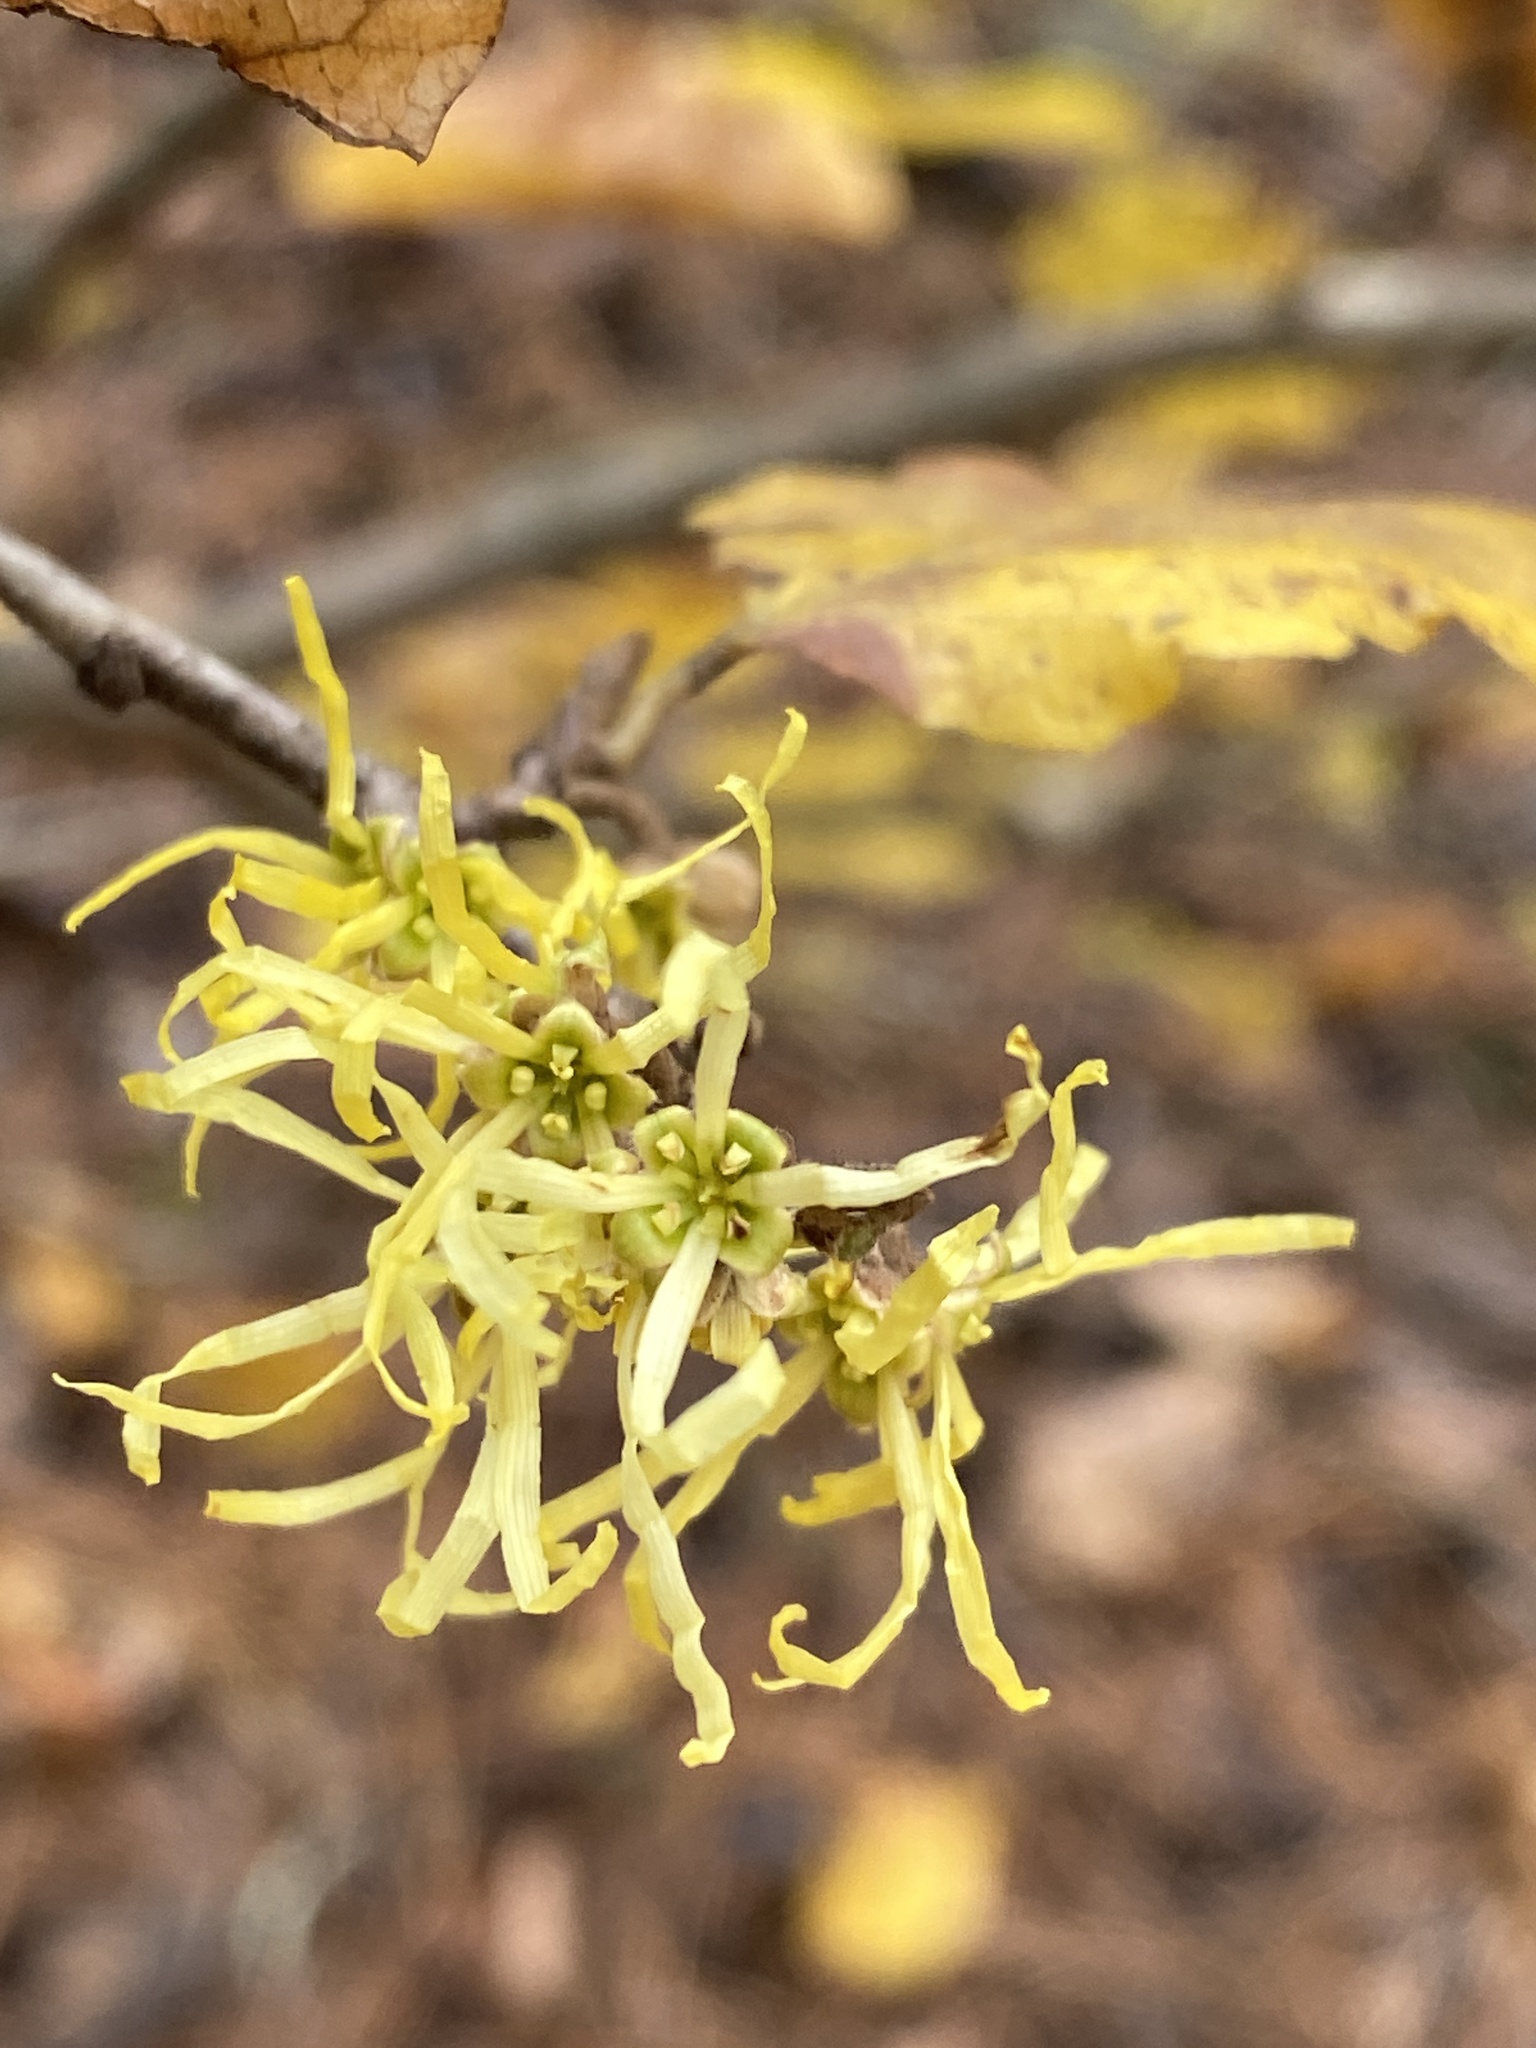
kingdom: Plantae
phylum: Tracheophyta
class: Magnoliopsida
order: Saxifragales
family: Hamamelidaceae
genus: Hamamelis
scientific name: Hamamelis virginiana
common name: Witch-hazel
